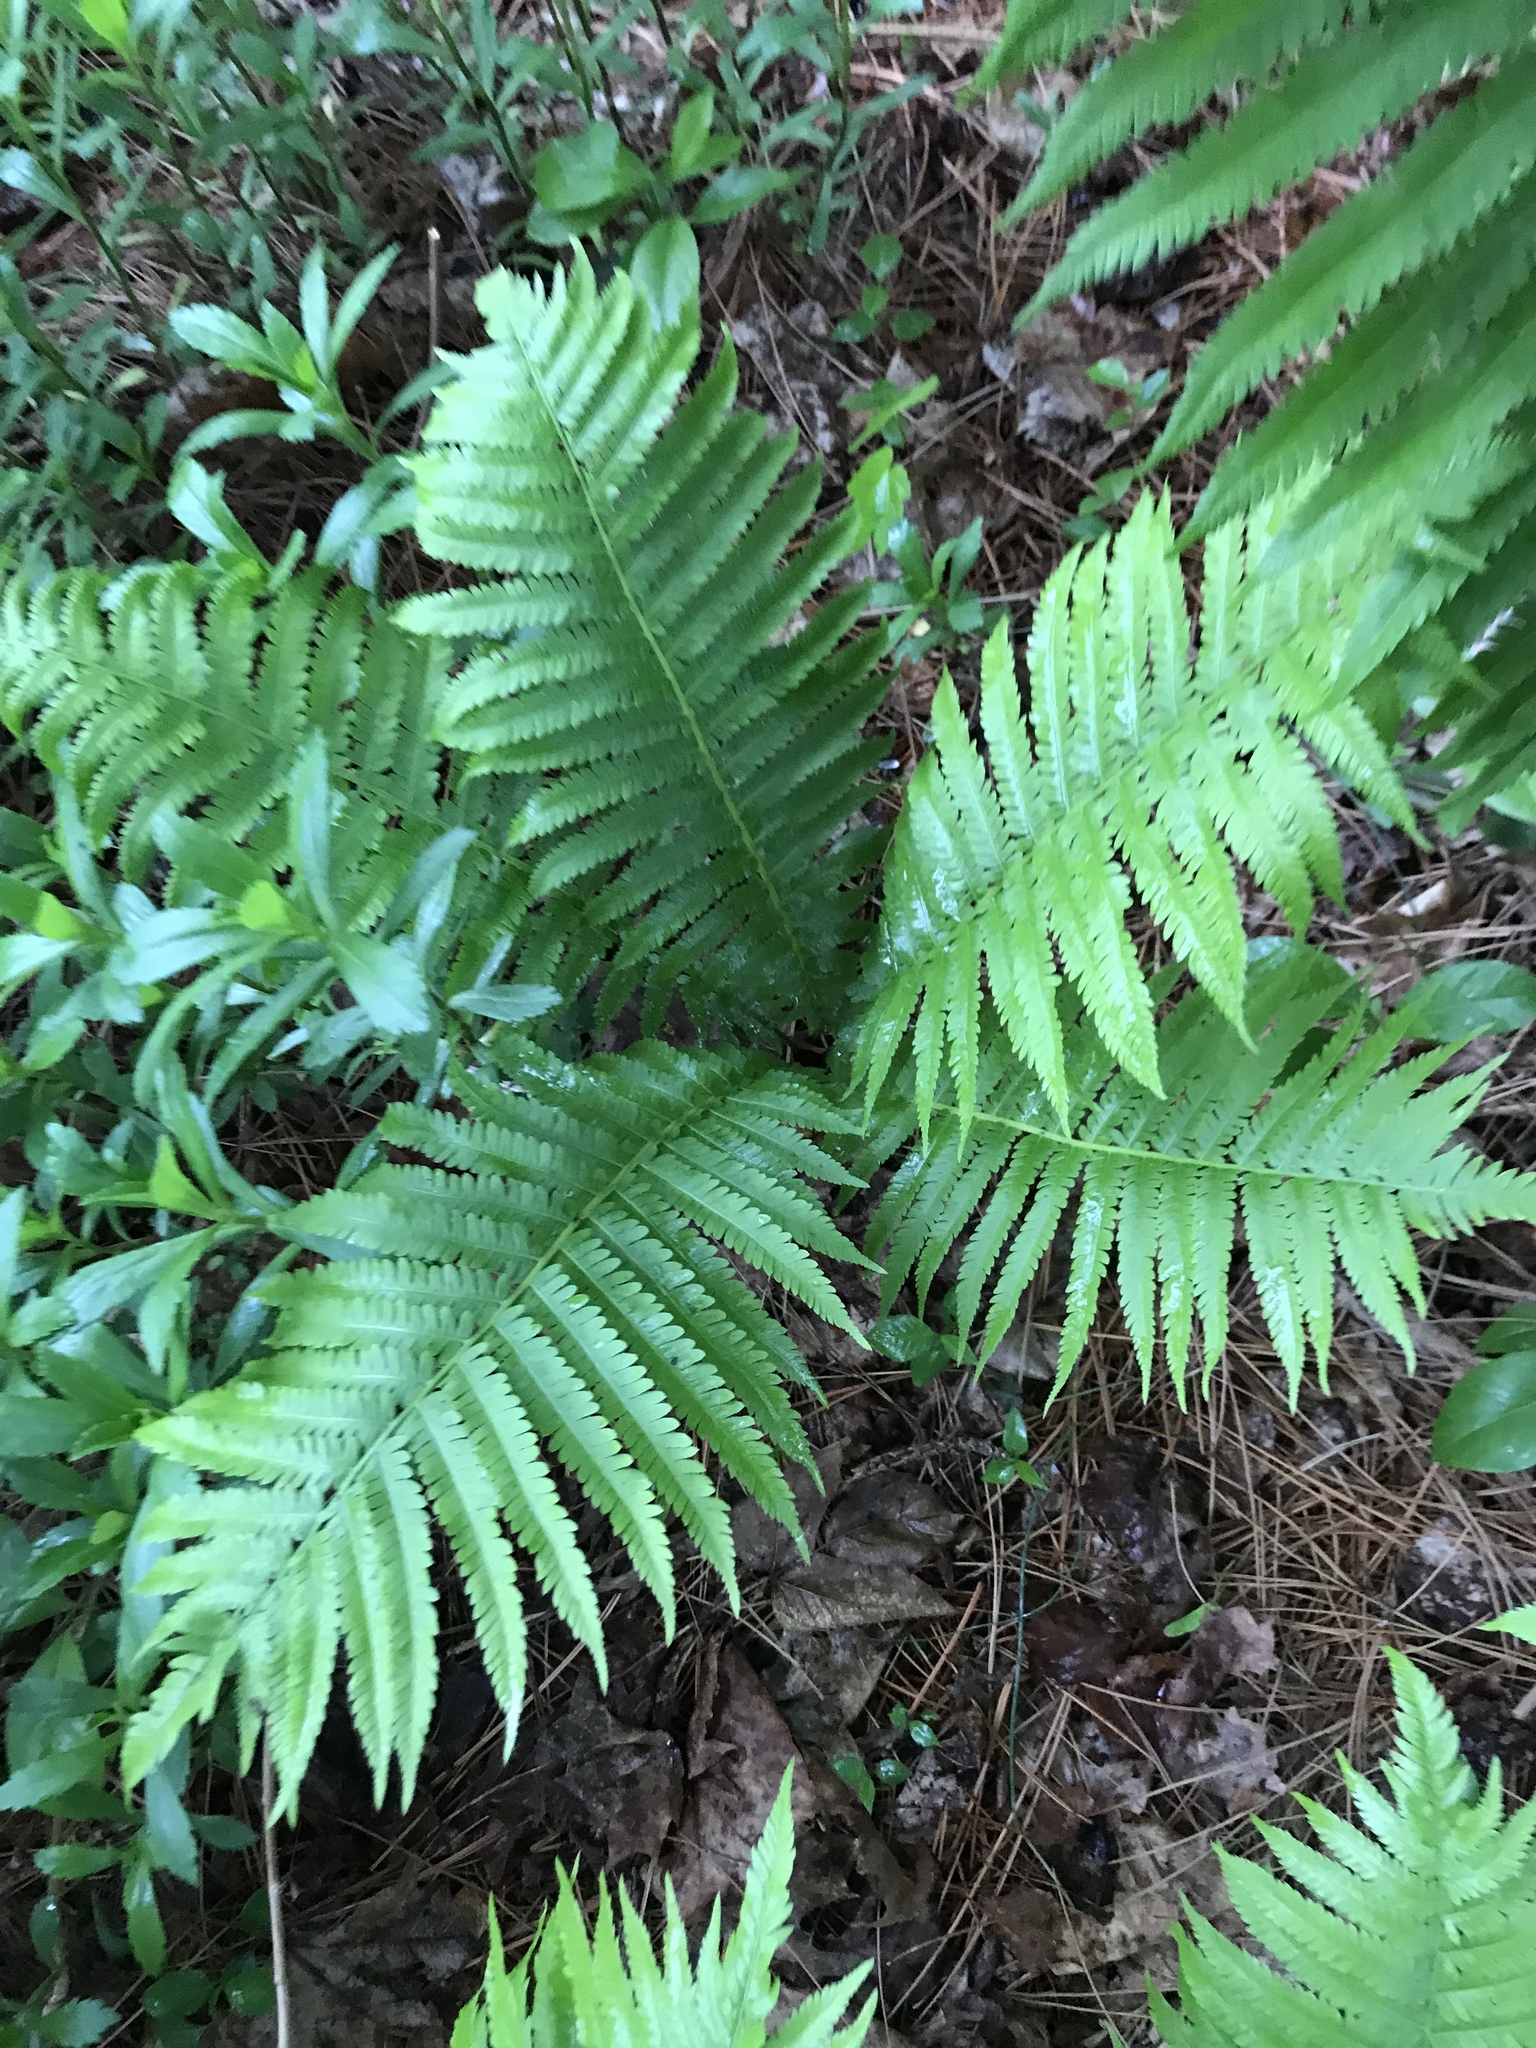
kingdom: Plantae
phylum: Tracheophyta
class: Polypodiopsida
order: Polypodiales
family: Onocleaceae
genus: Matteuccia
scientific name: Matteuccia struthiopteris
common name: Ostrich fern
